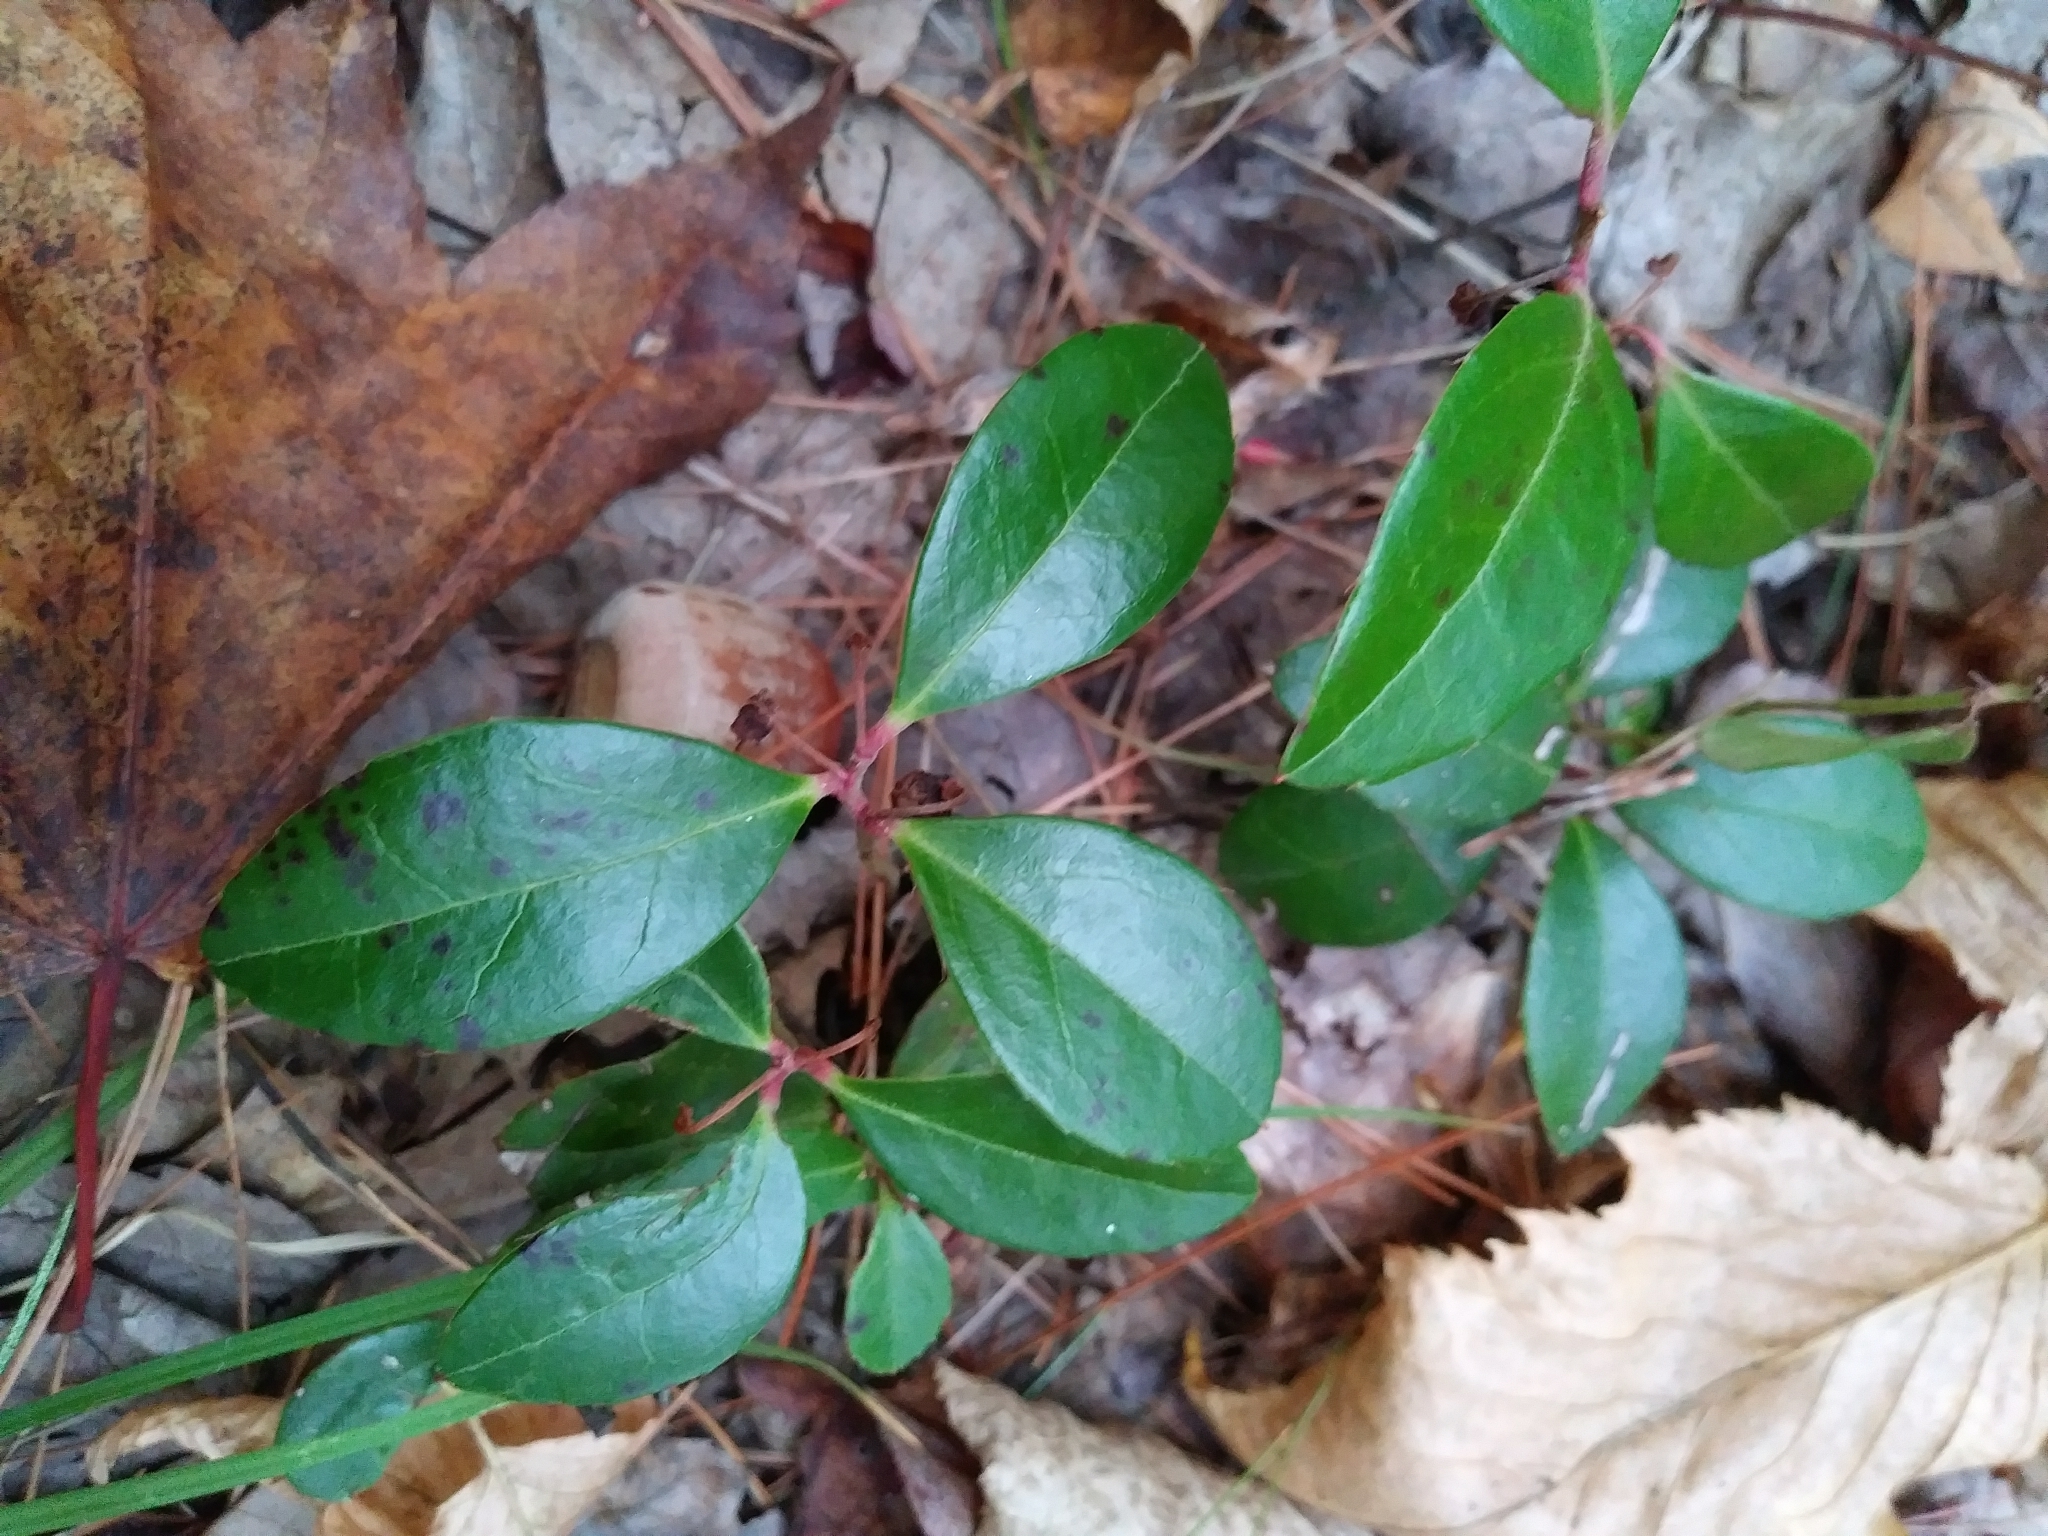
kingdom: Plantae
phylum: Tracheophyta
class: Magnoliopsida
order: Ericales
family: Ericaceae
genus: Gaultheria
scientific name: Gaultheria procumbens
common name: Checkerberry
